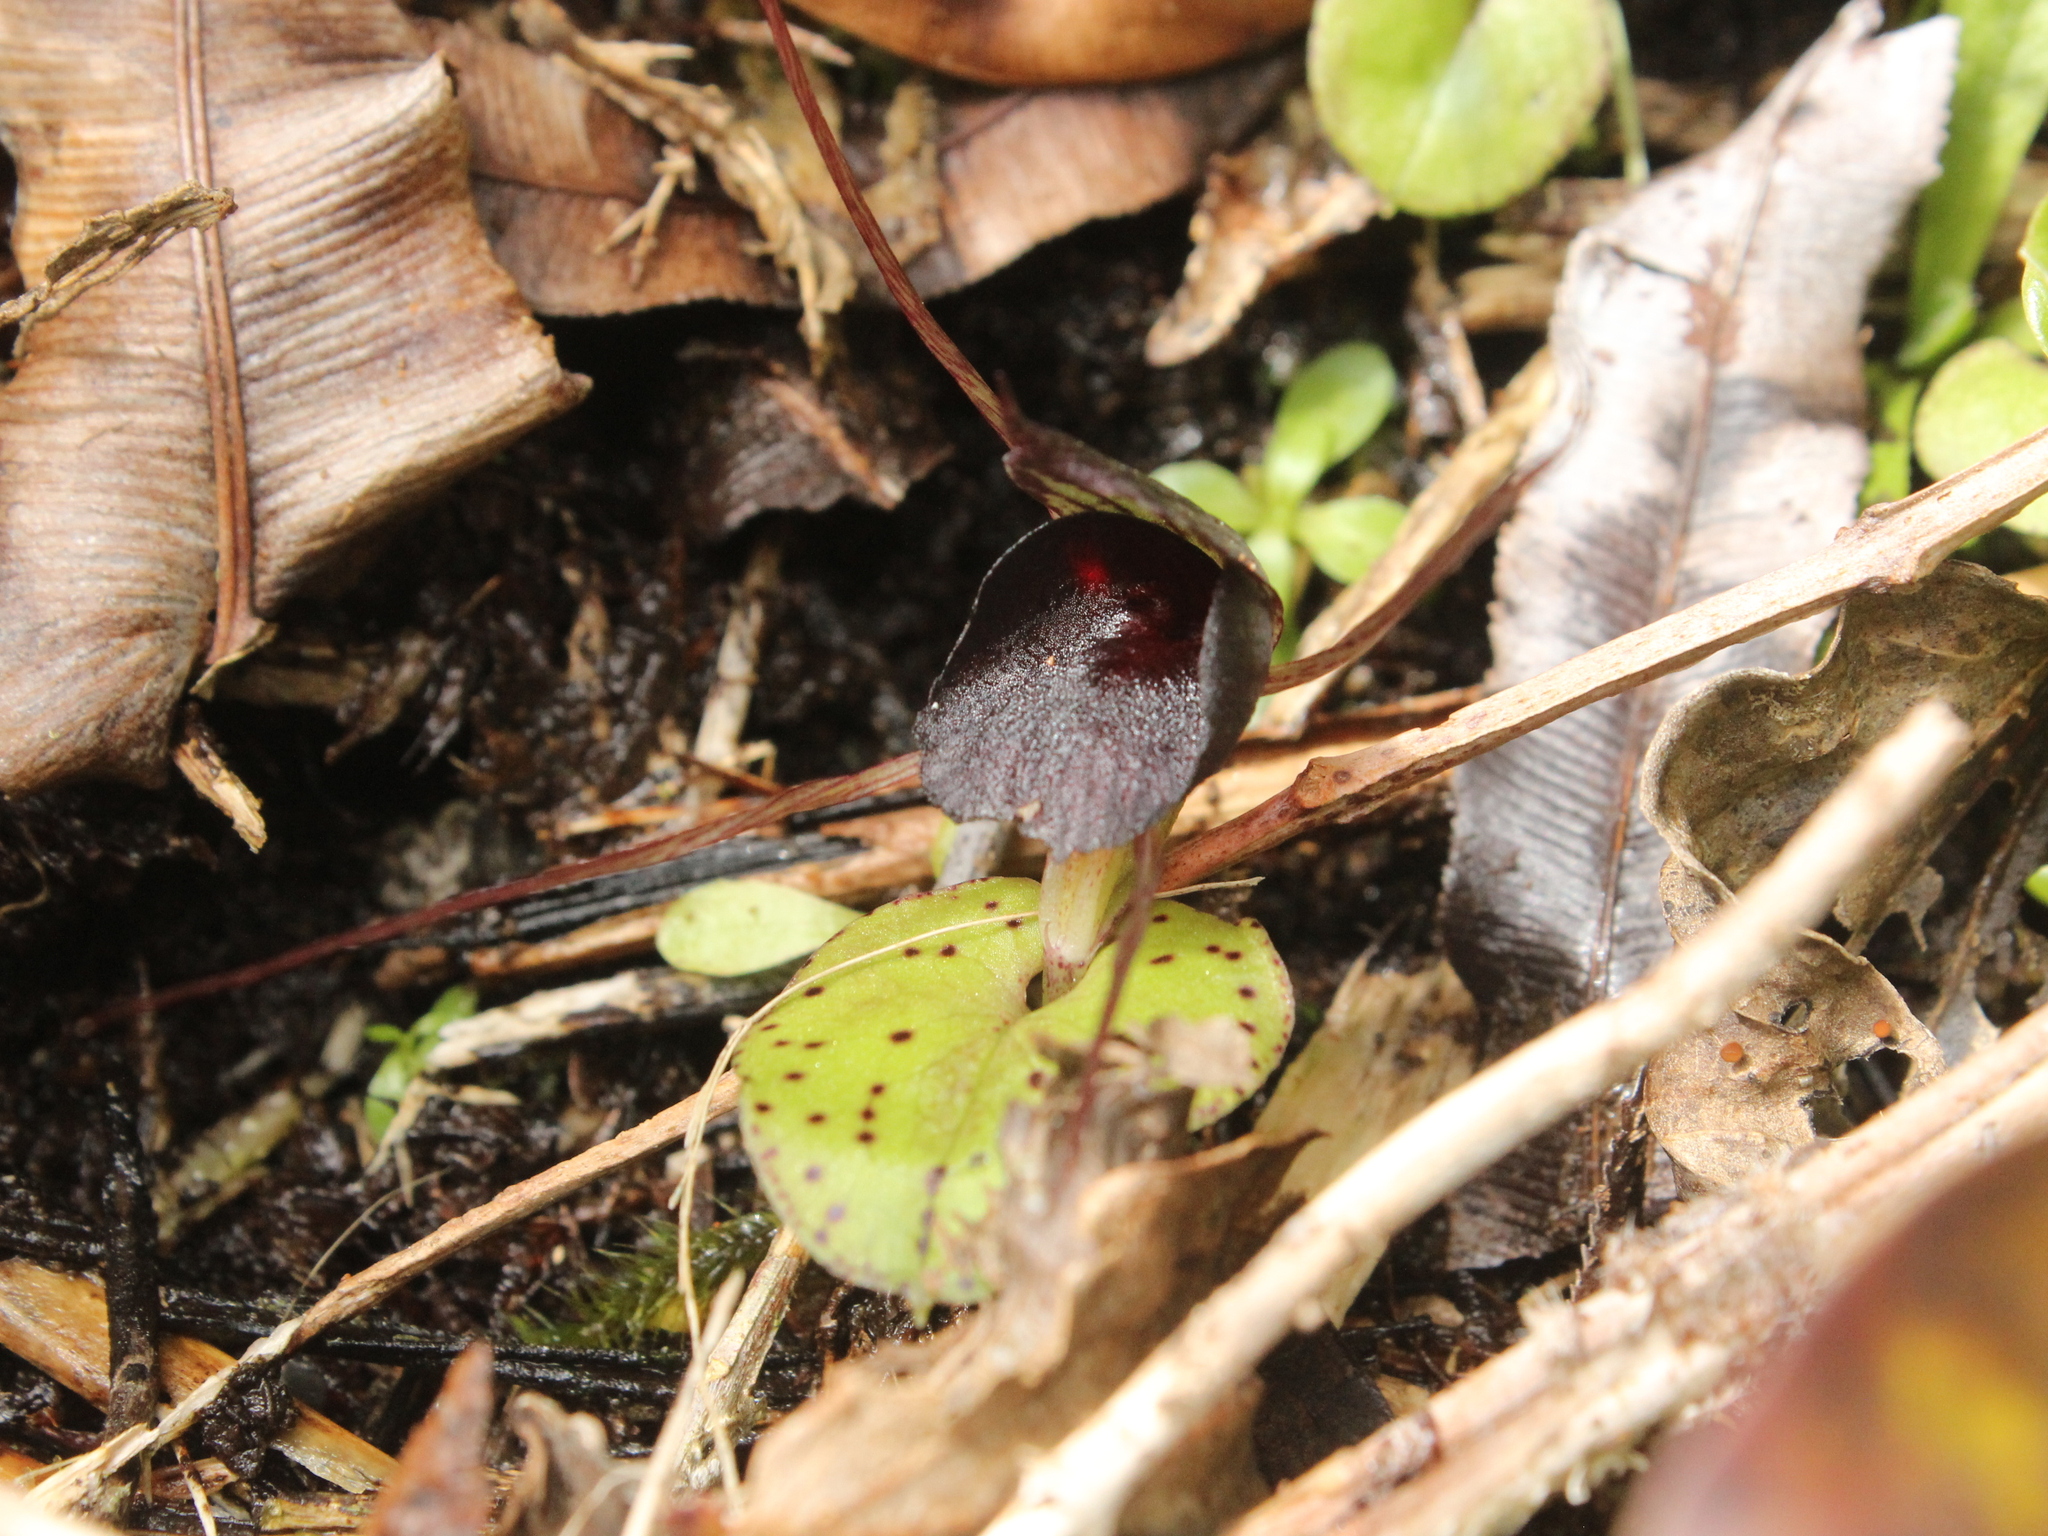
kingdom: Plantae
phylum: Tracheophyta
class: Liliopsida
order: Asparagales
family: Orchidaceae
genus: Corybas
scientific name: Corybas iridescens
